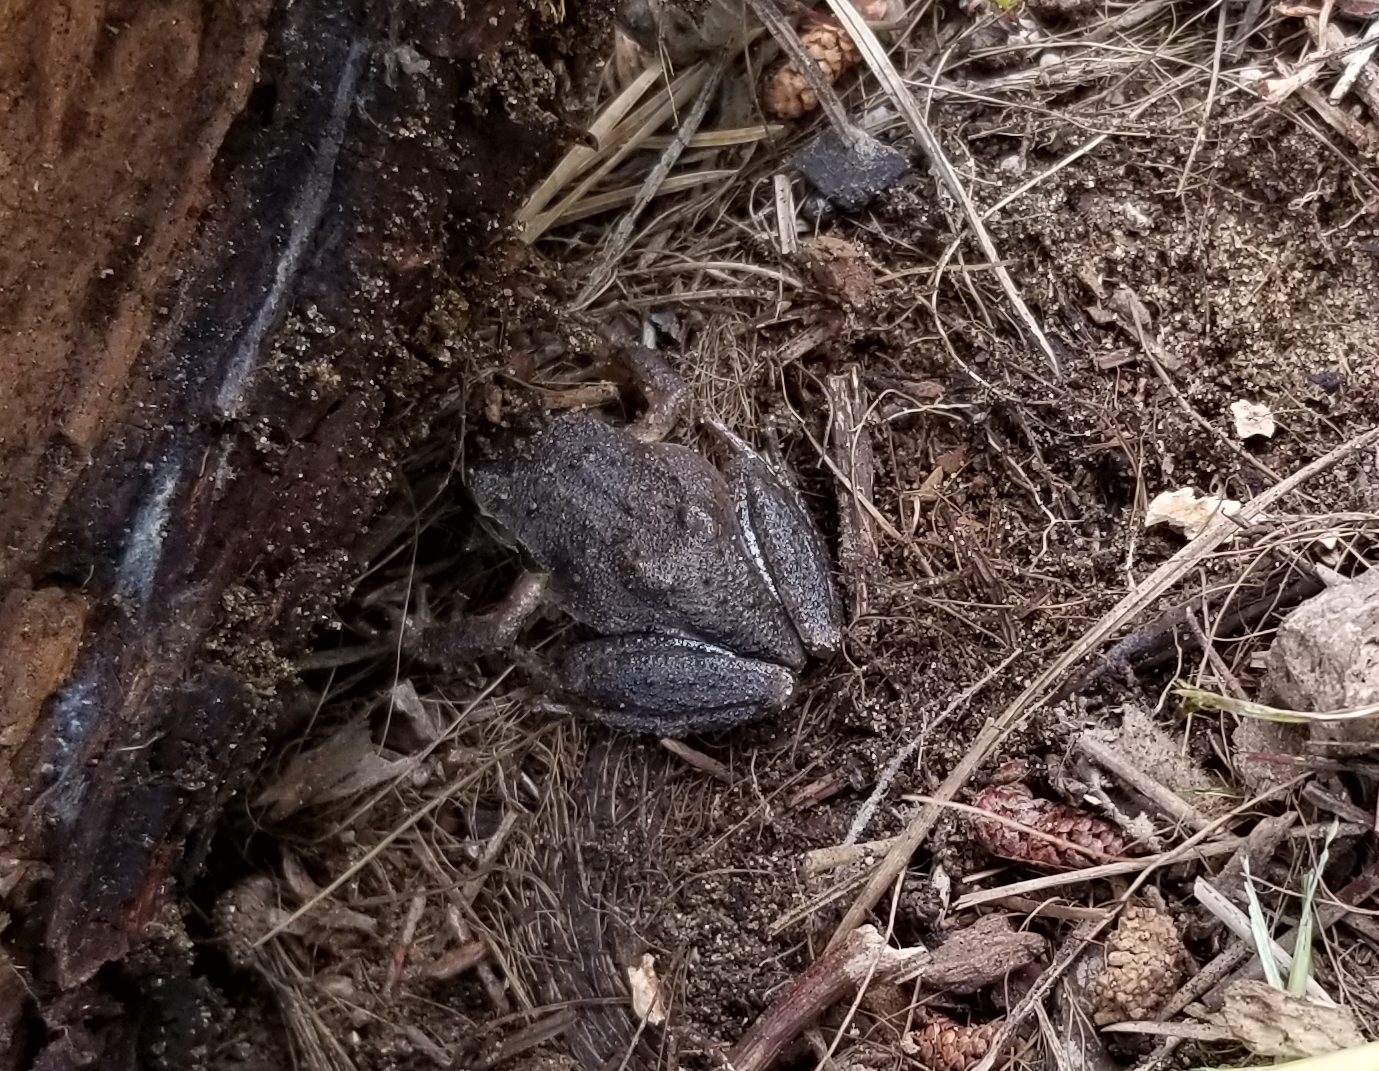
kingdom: Animalia
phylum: Chordata
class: Amphibia
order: Anura
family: Hylidae
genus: Pseudacris
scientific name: Pseudacris regilla
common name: Pacific chorus frog
